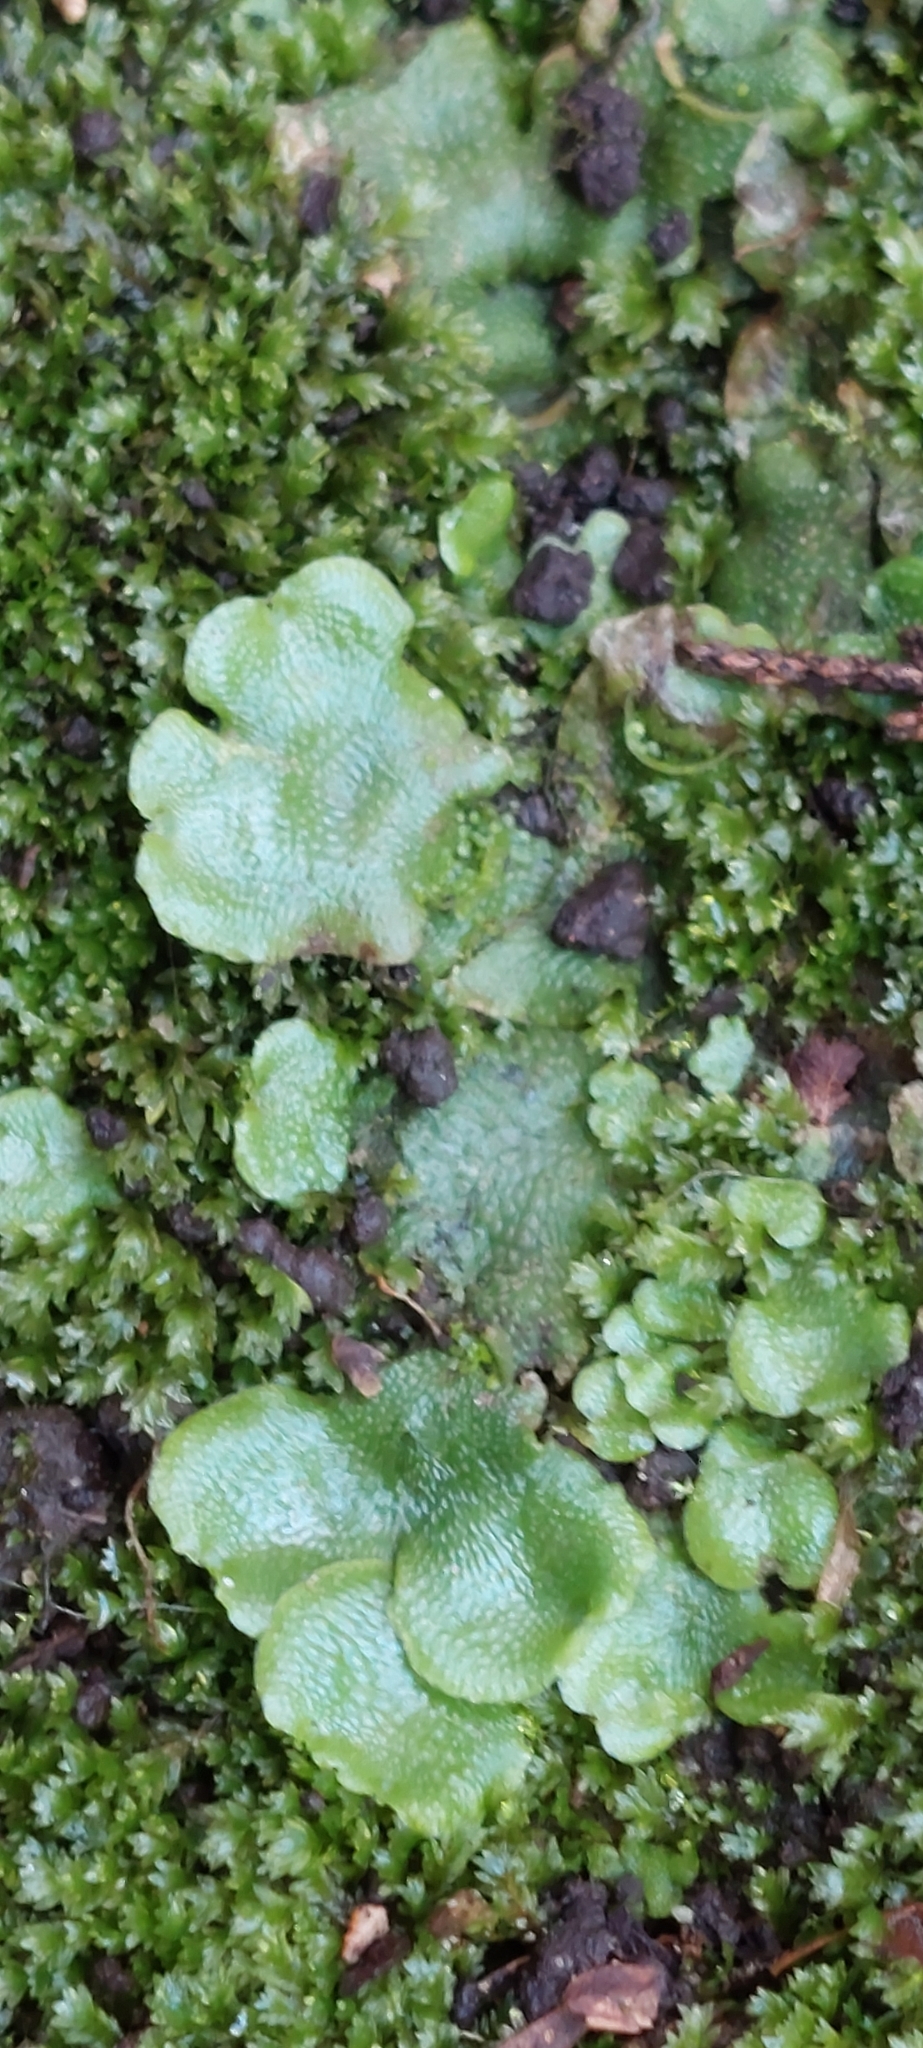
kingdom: Plantae
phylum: Marchantiophyta
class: Marchantiopsida
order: Lunulariales
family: Lunulariaceae
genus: Lunularia
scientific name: Lunularia cruciata
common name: Crescent-cup liverwort
